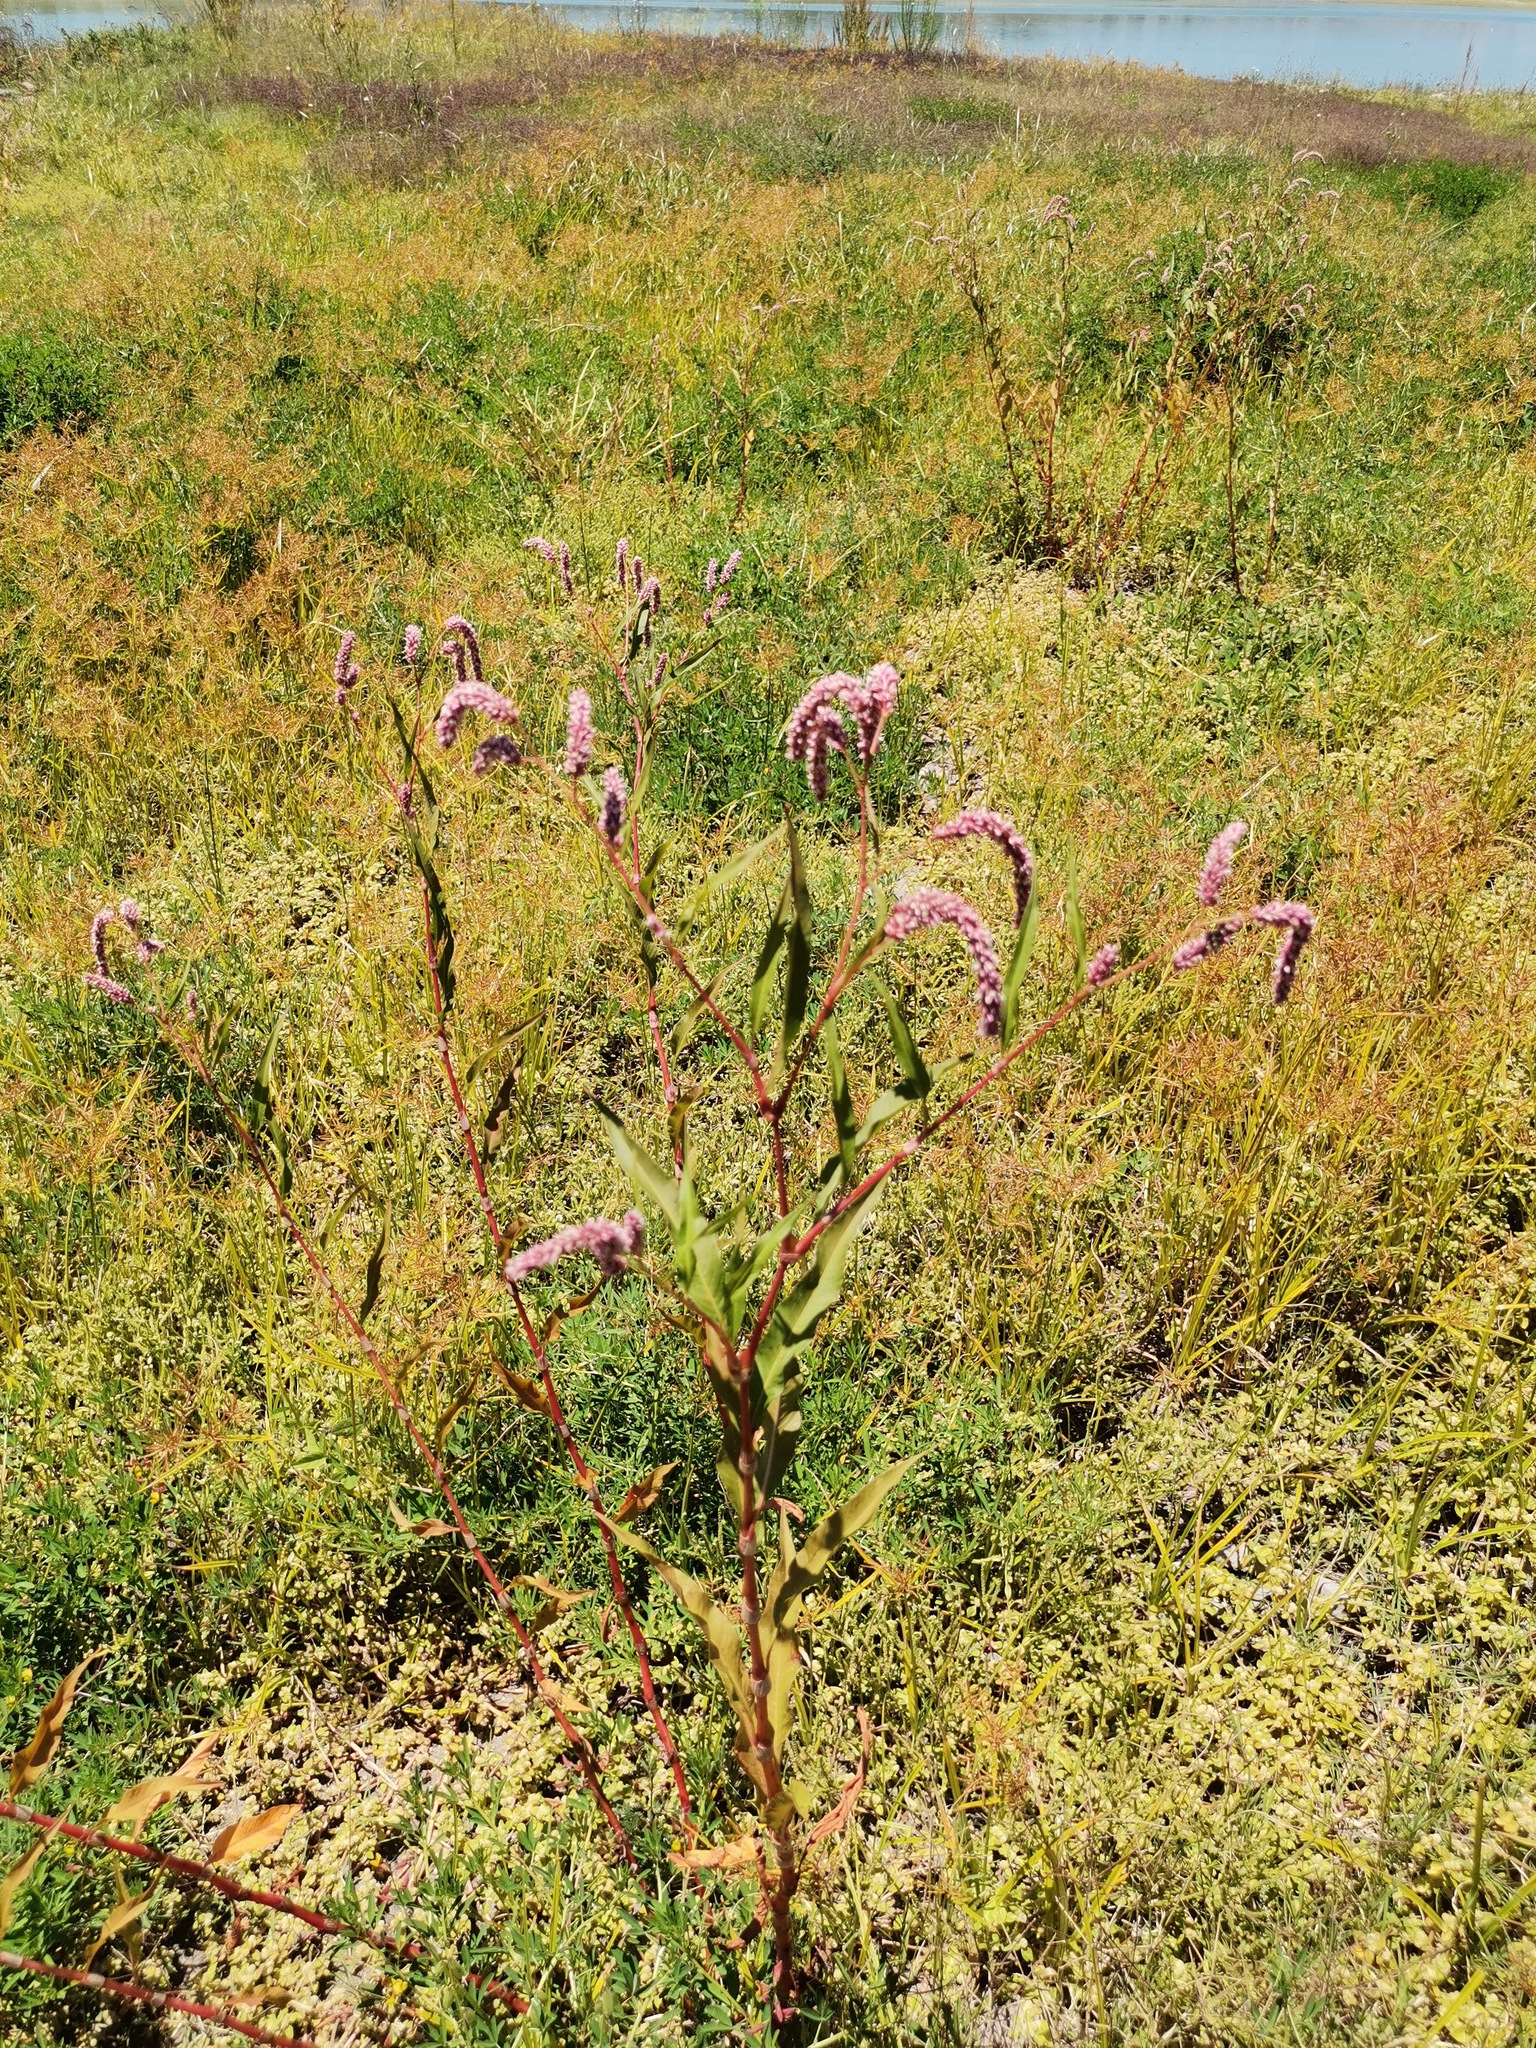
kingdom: Plantae
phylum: Tracheophyta
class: Magnoliopsida
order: Caryophyllales
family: Polygonaceae
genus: Persicaria
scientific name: Persicaria lapathifolia
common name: Curlytop knotweed
